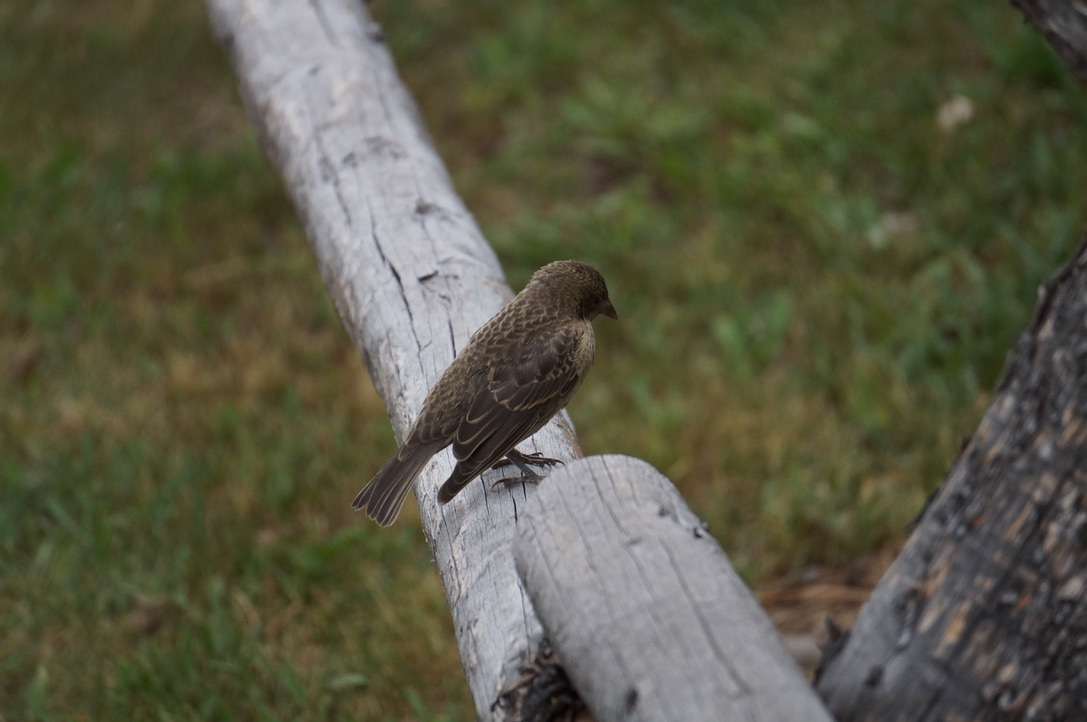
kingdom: Animalia
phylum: Chordata
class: Aves
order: Passeriformes
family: Icteridae
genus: Molothrus
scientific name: Molothrus ater
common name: Brown-headed cowbird
